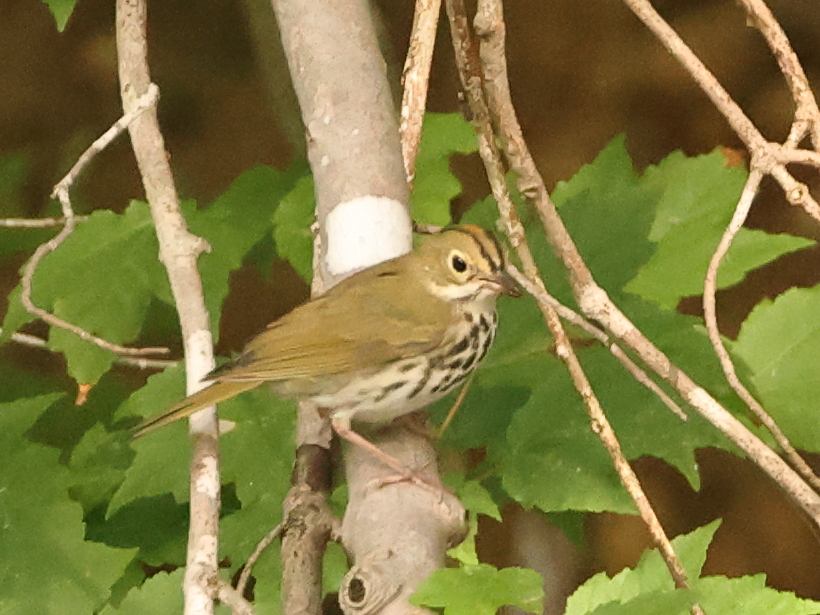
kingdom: Animalia
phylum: Chordata
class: Aves
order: Passeriformes
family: Parulidae
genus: Seiurus
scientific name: Seiurus aurocapilla
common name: Ovenbird
